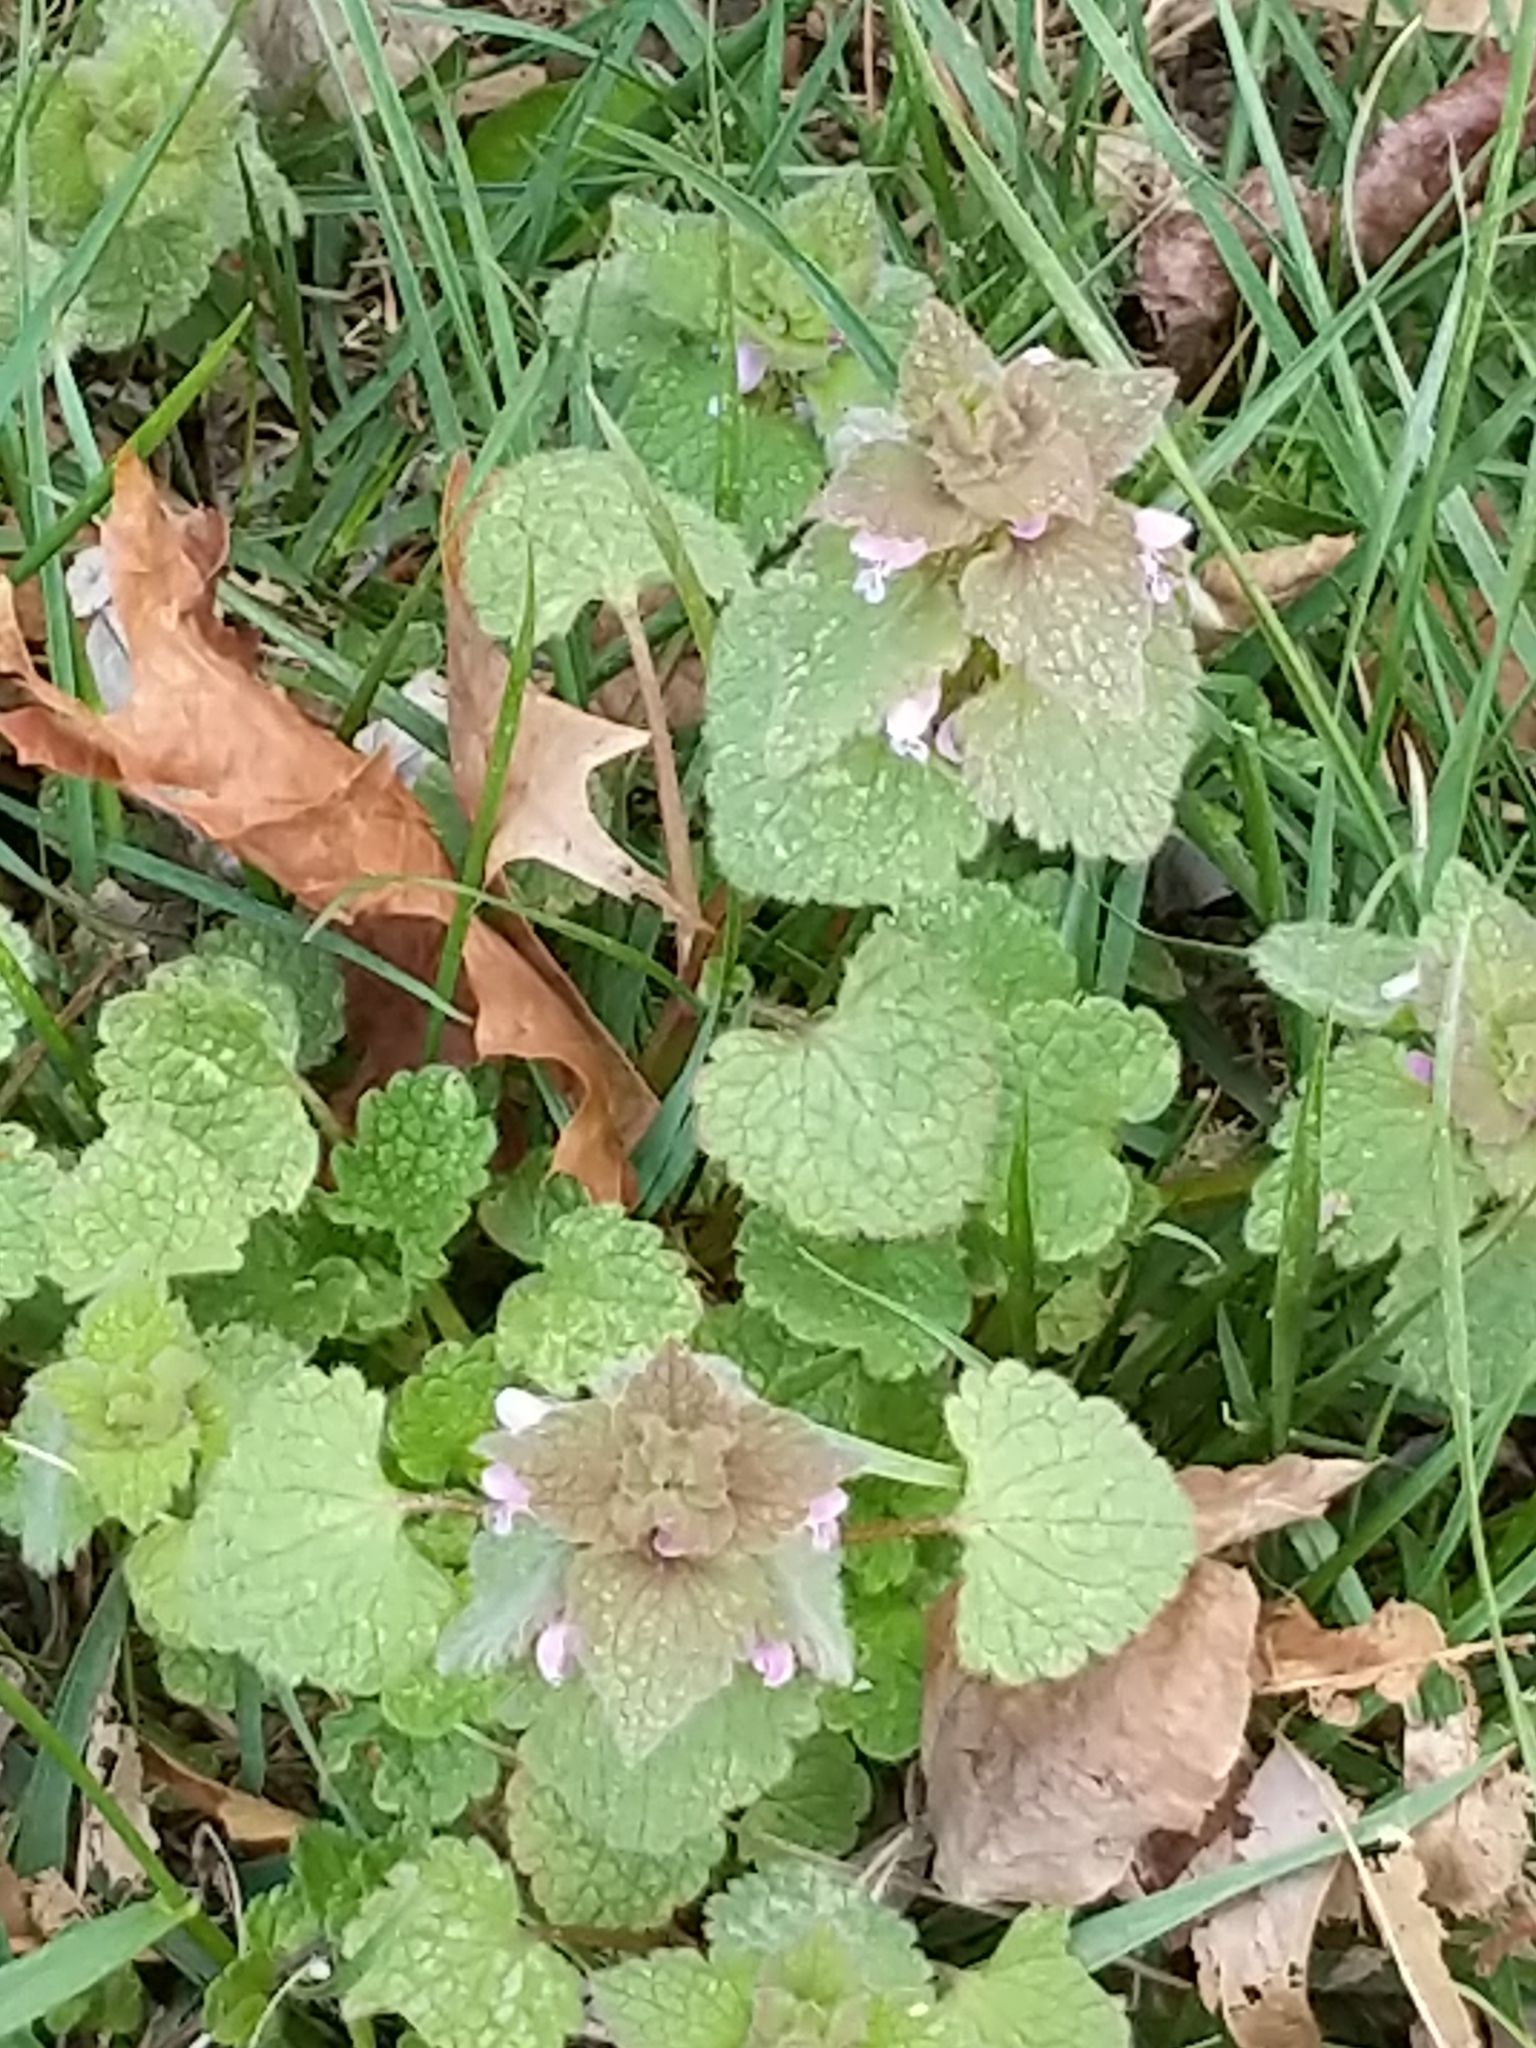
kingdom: Plantae
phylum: Tracheophyta
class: Magnoliopsida
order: Lamiales
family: Lamiaceae
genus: Lamium
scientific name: Lamium purpureum
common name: Red dead-nettle
